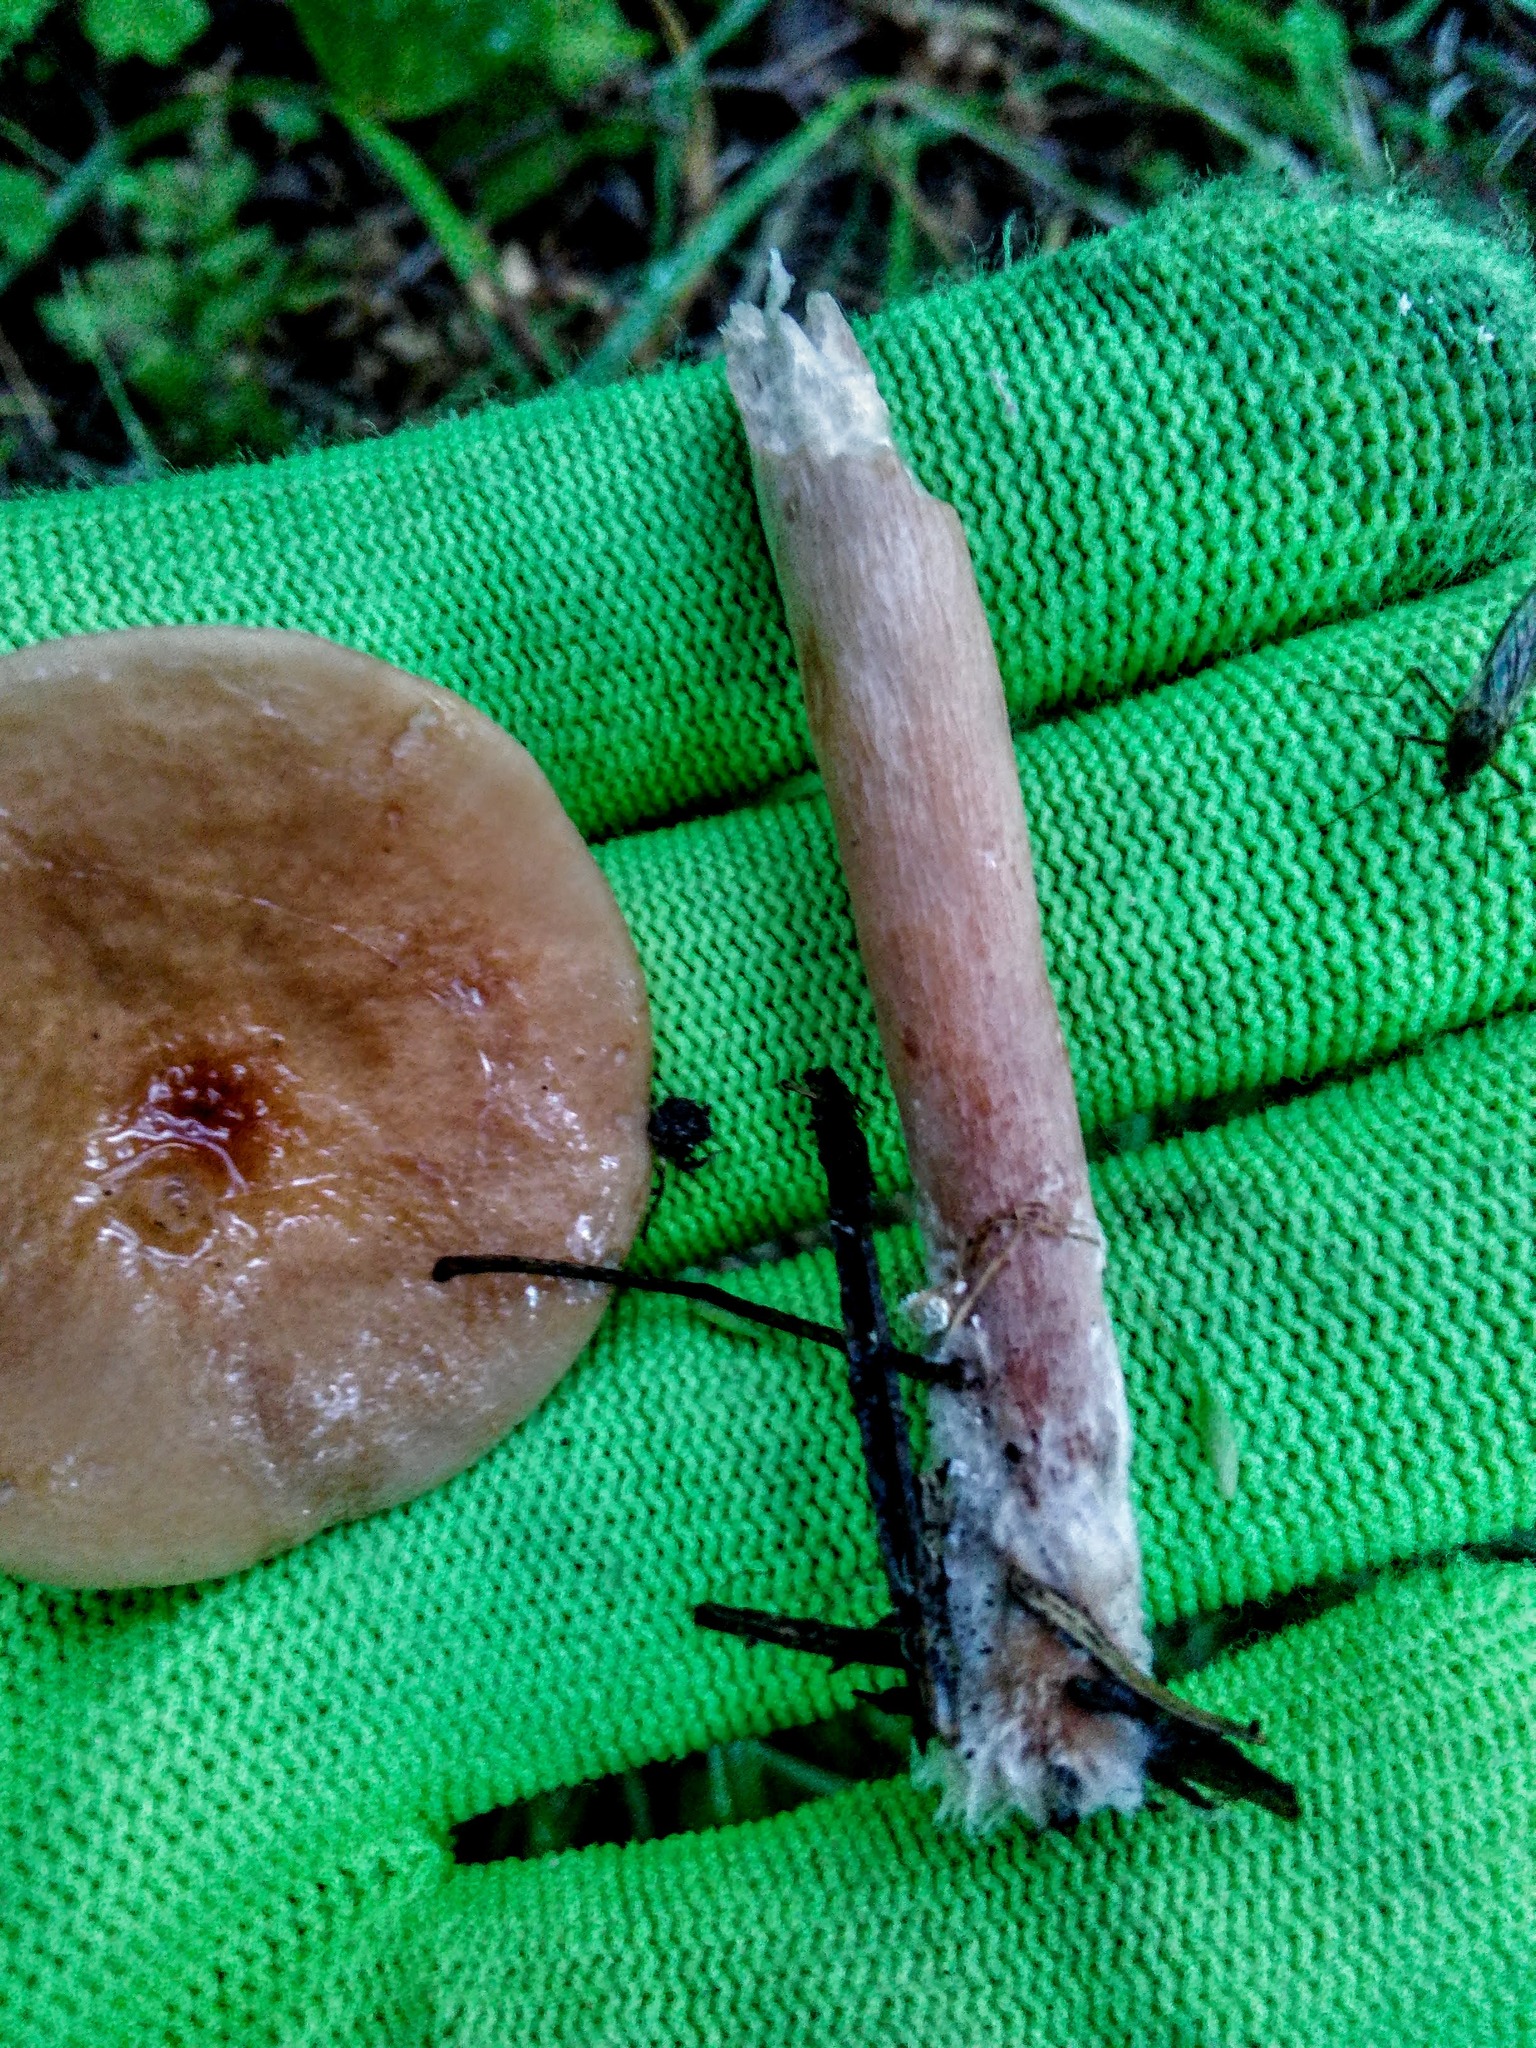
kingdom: Fungi
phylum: Basidiomycota
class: Agaricomycetes
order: Russulales
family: Russulaceae
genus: Lactarius
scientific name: Lactarius helvus
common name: Fenugreek milkcap
